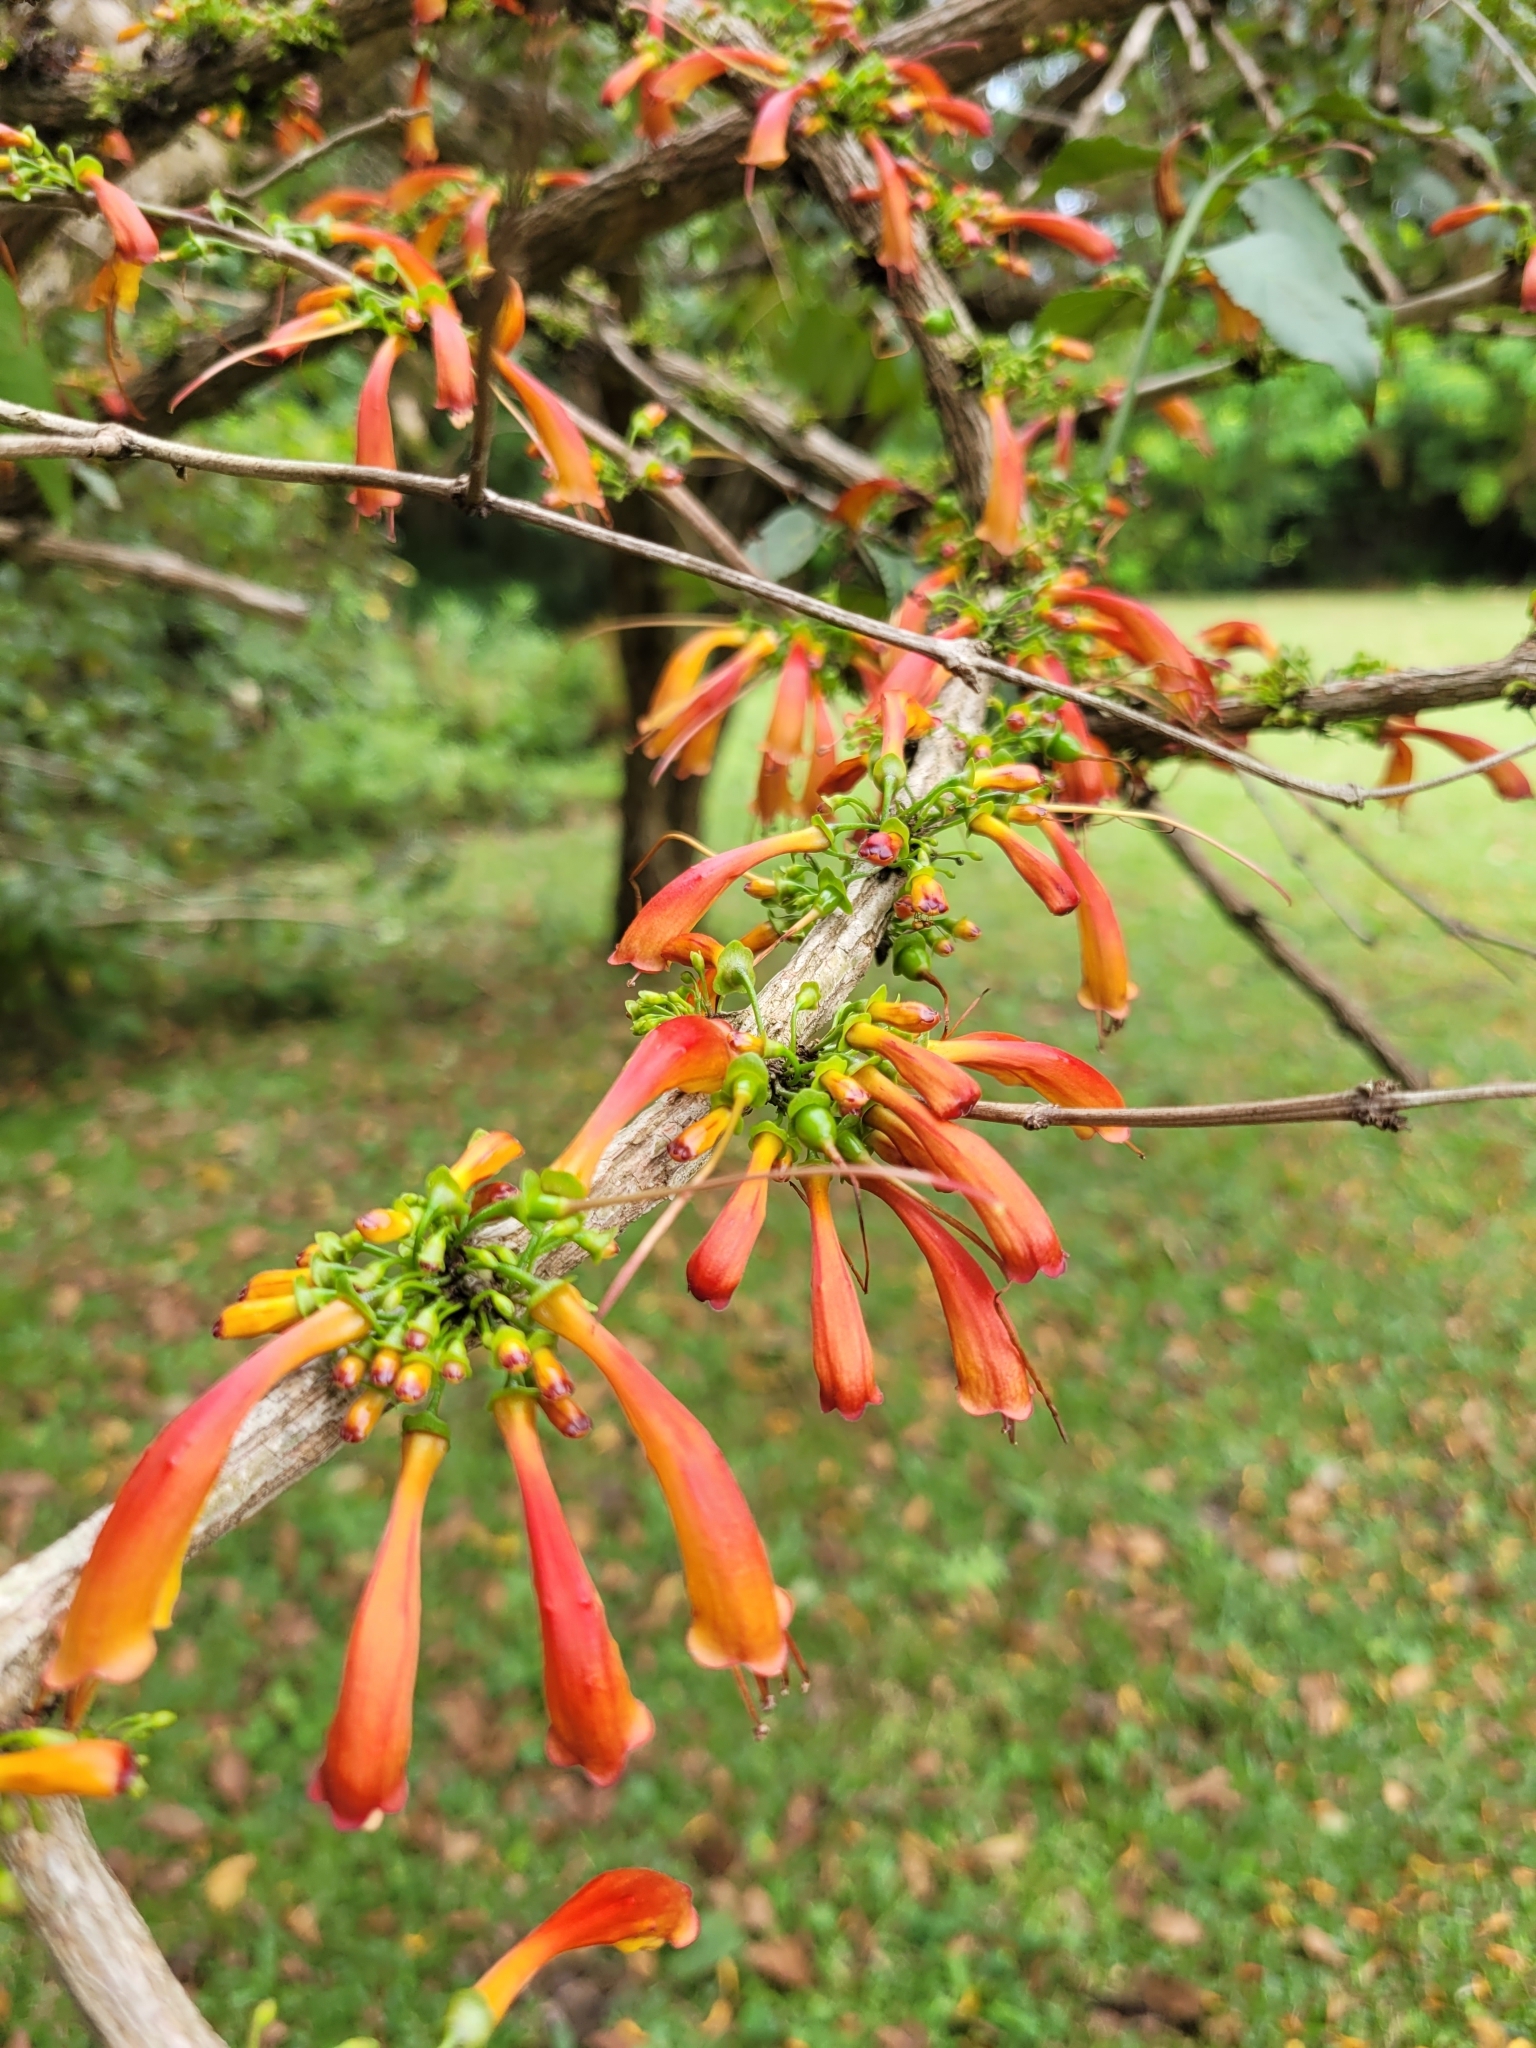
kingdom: Plantae
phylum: Tracheophyta
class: Magnoliopsida
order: Lamiales
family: Stilbaceae
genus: Halleria
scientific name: Halleria lucida
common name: Tree fuschia
